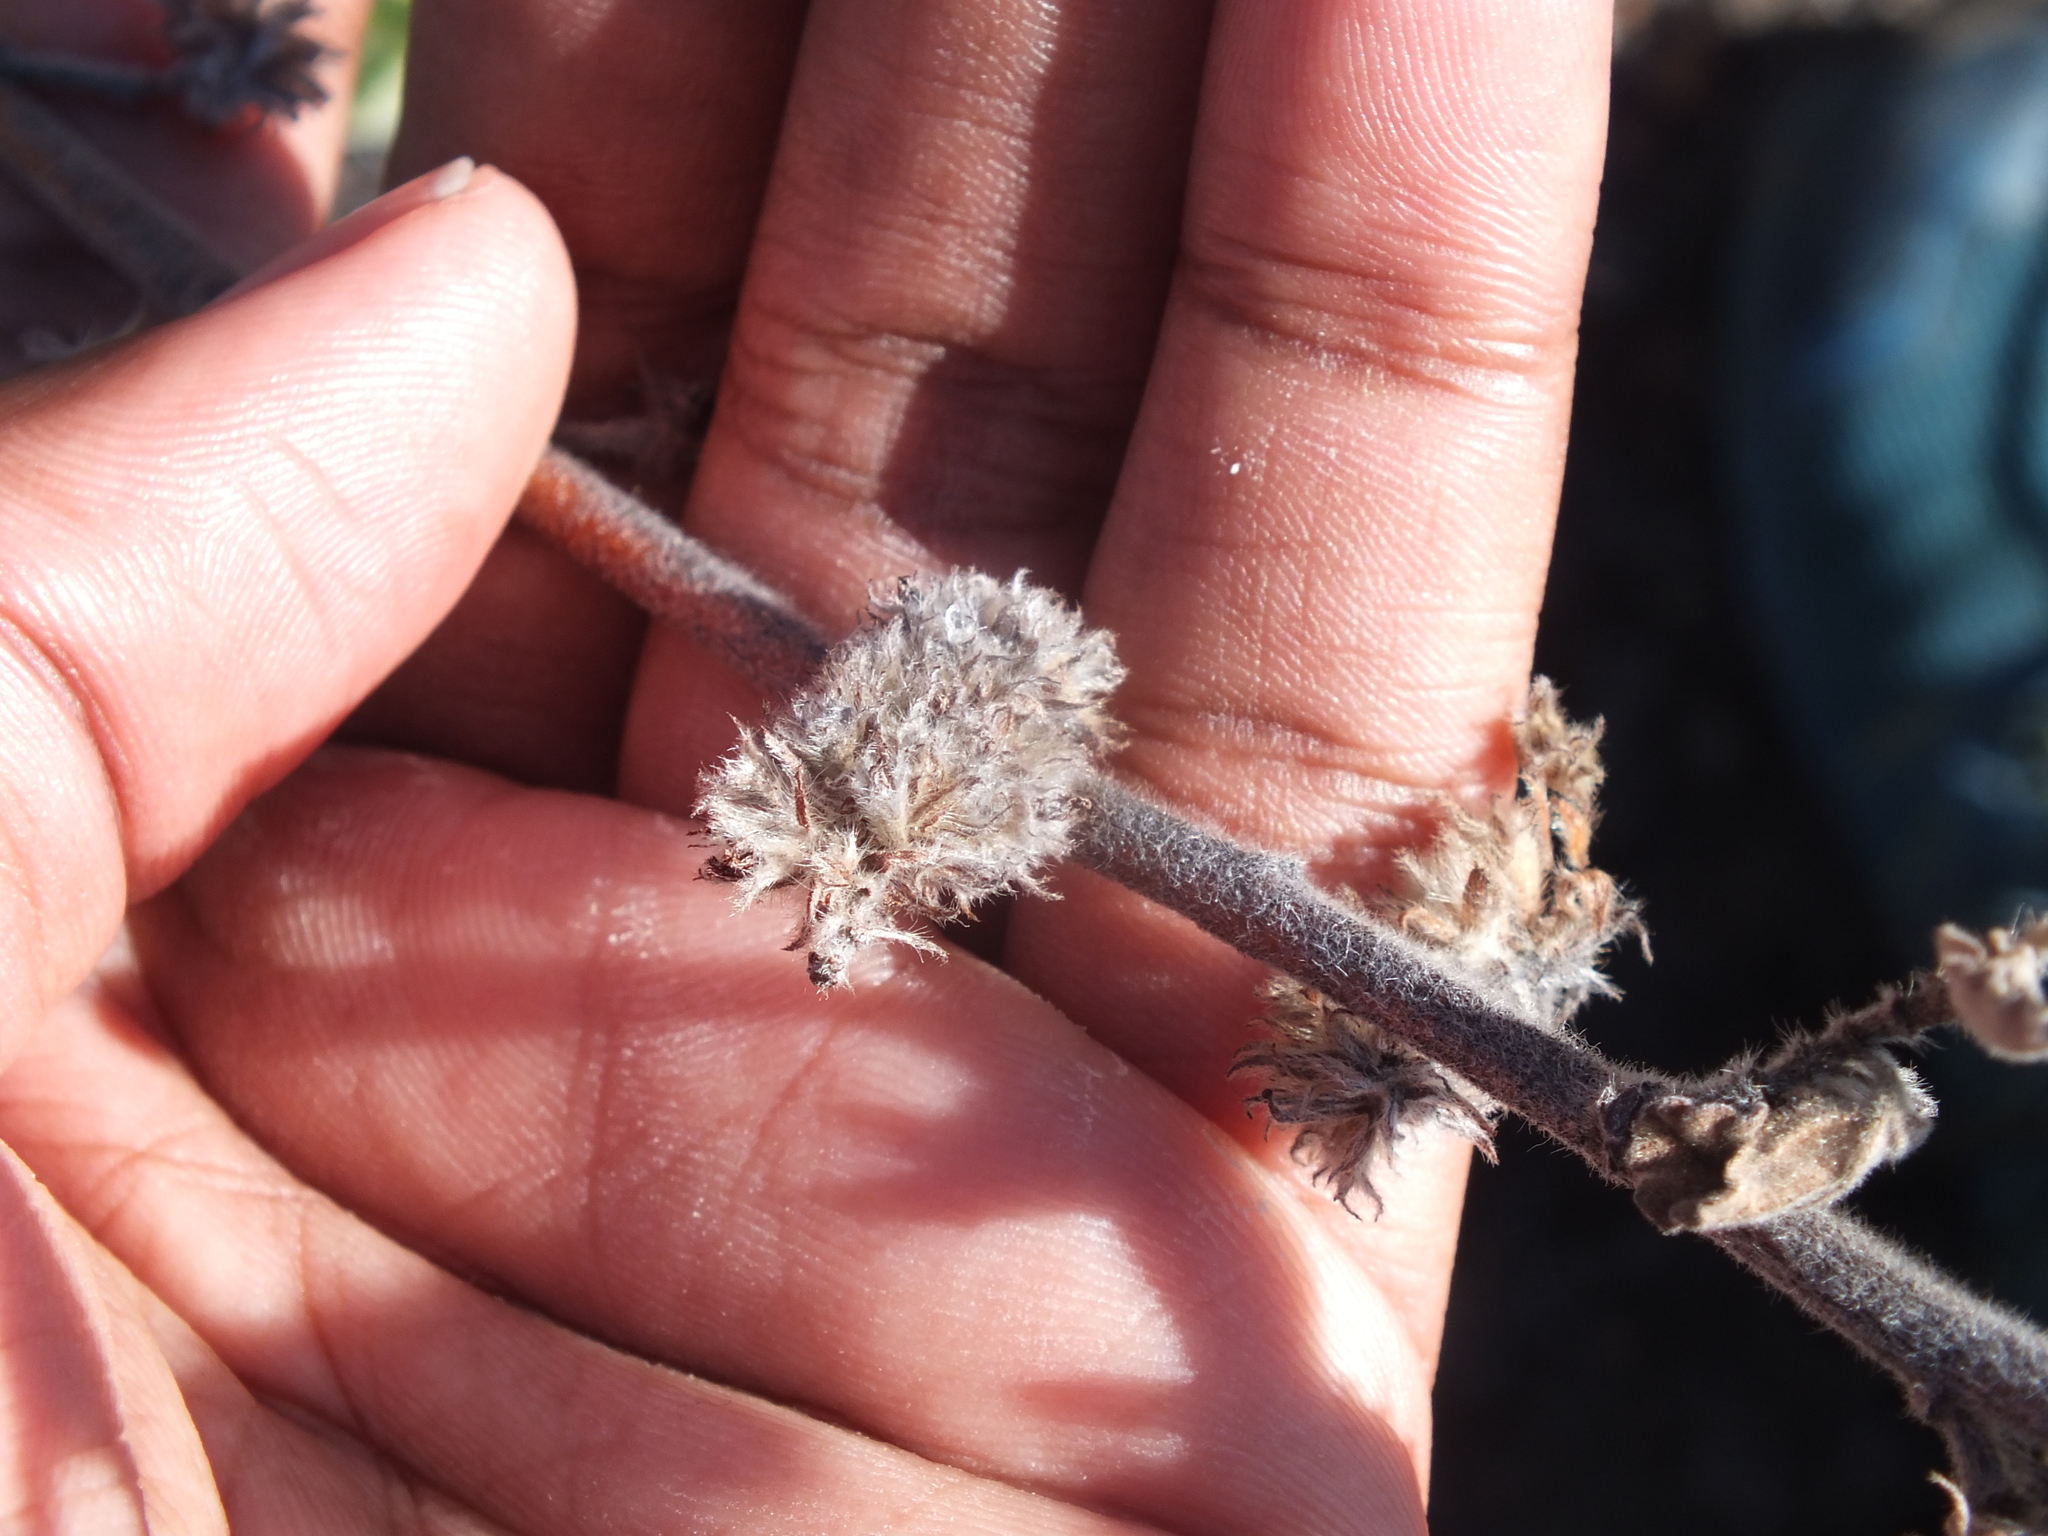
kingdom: Plantae
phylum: Tracheophyta
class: Magnoliopsida
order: Malvales
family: Malvaceae
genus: Waltheria
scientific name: Waltheria indica
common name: Leather-coat
